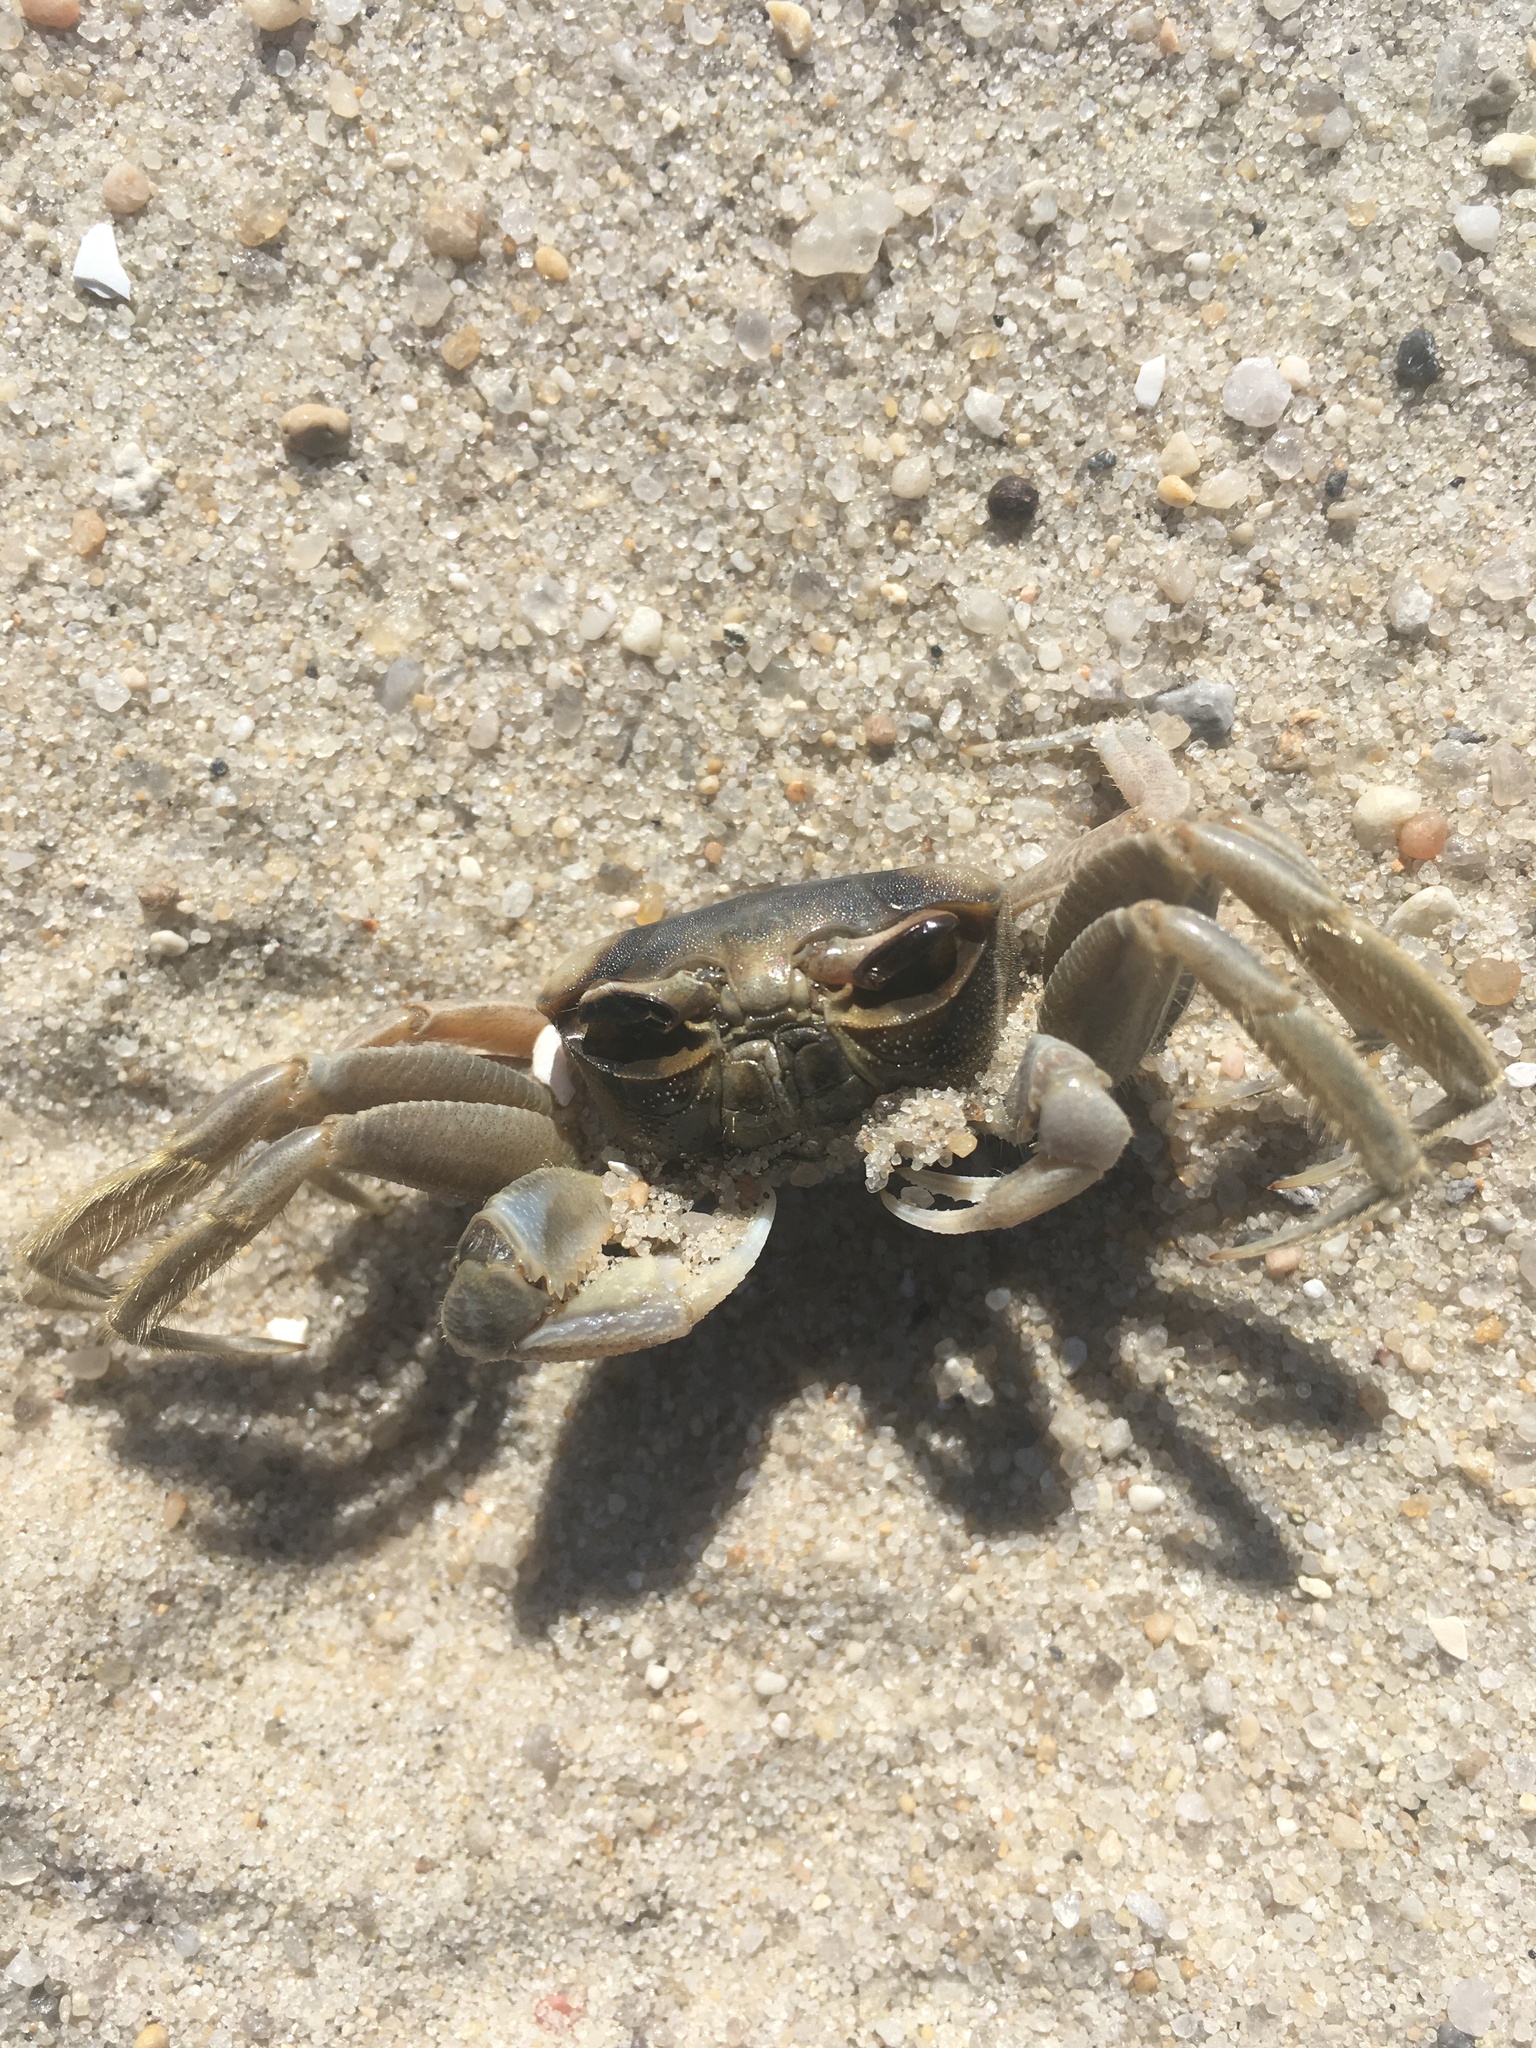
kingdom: Animalia
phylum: Arthropoda
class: Malacostraca
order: Decapoda
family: Ocypodidae
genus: Ocypode
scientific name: Ocypode quadrata
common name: Ghost crab
